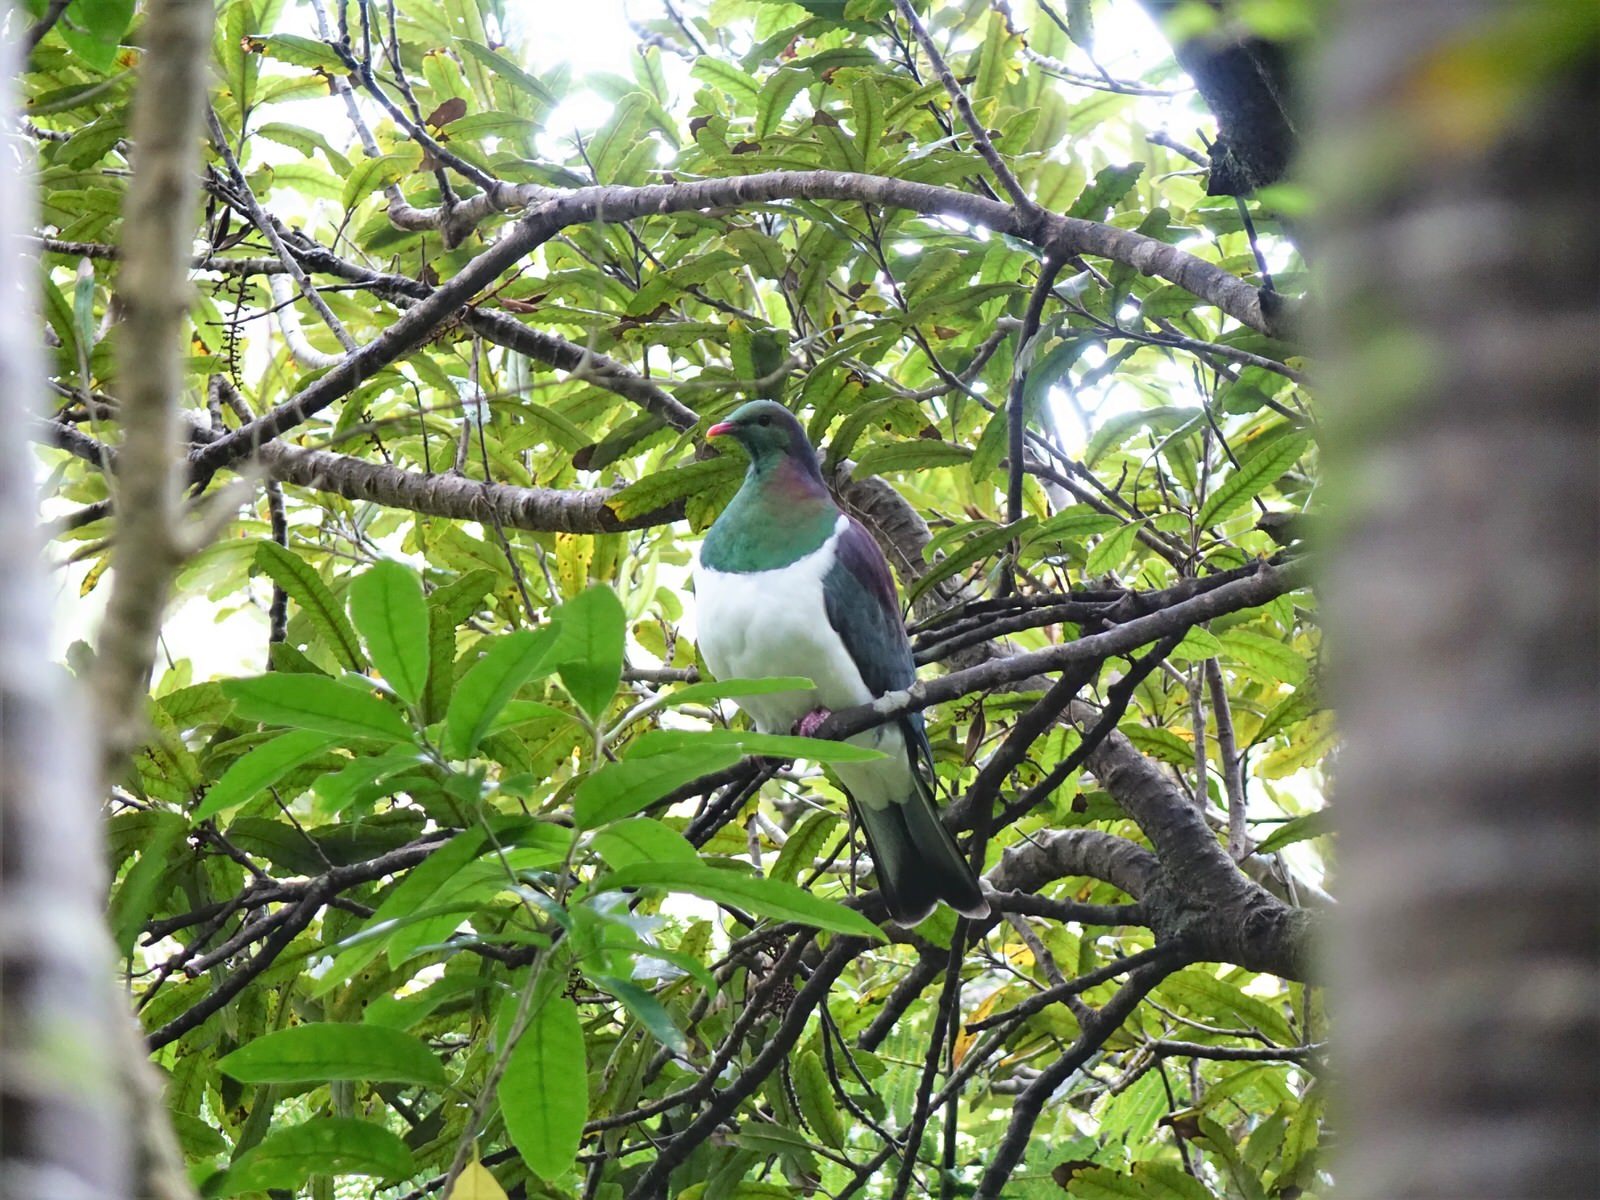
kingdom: Animalia
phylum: Chordata
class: Aves
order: Columbiformes
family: Columbidae
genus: Hemiphaga
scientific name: Hemiphaga novaeseelandiae
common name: New zealand pigeon
